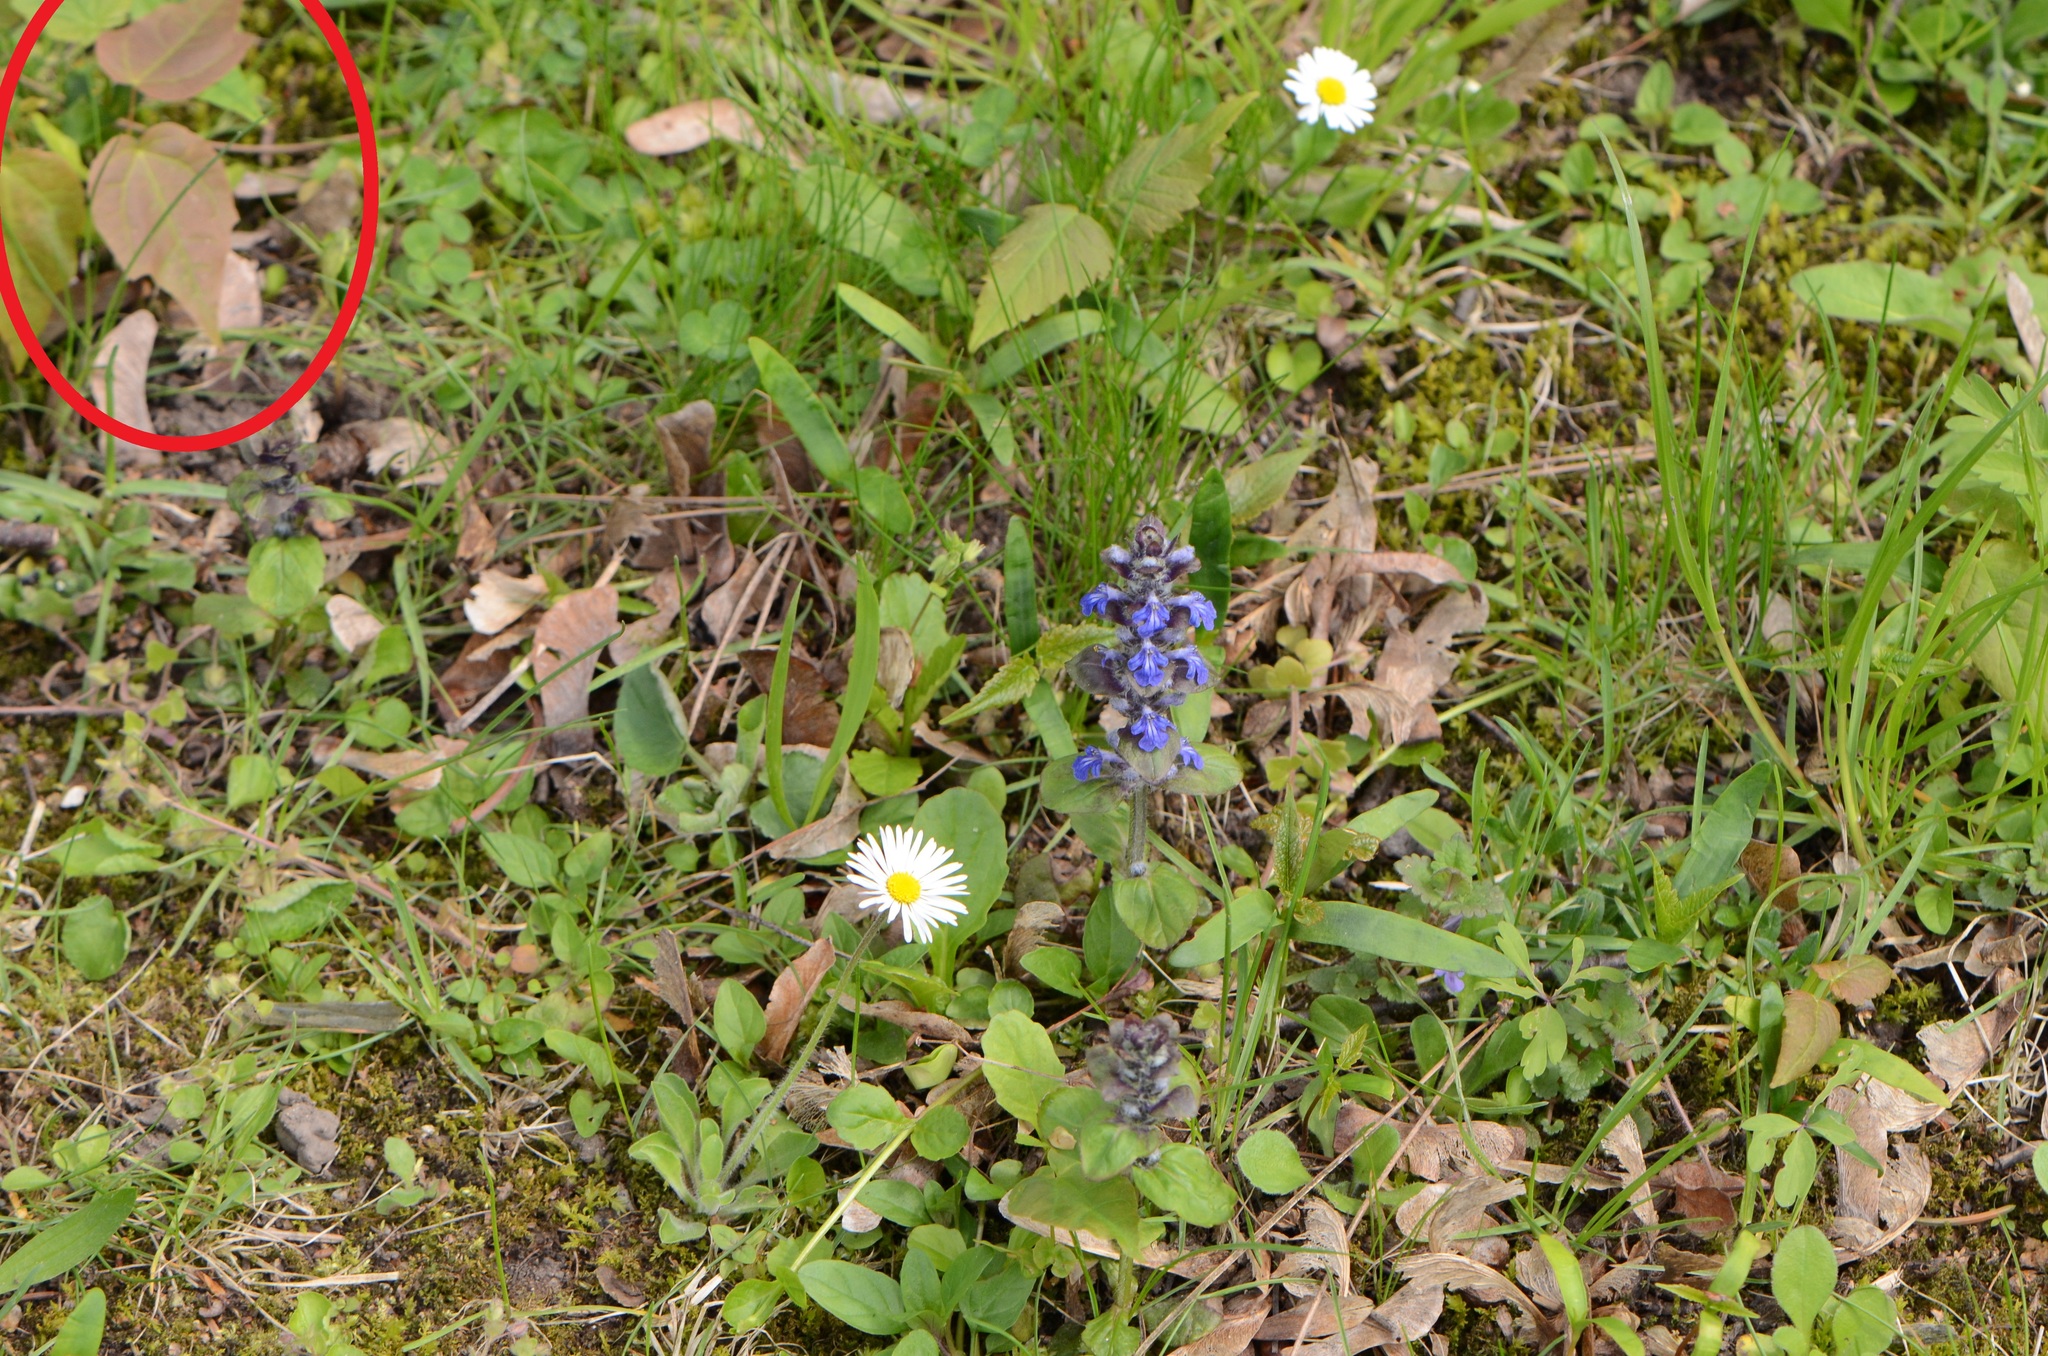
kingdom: Plantae
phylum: Tracheophyta
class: Magnoliopsida
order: Sapindales
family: Sapindaceae
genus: Acer
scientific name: Acer platanoides
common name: Norway maple
